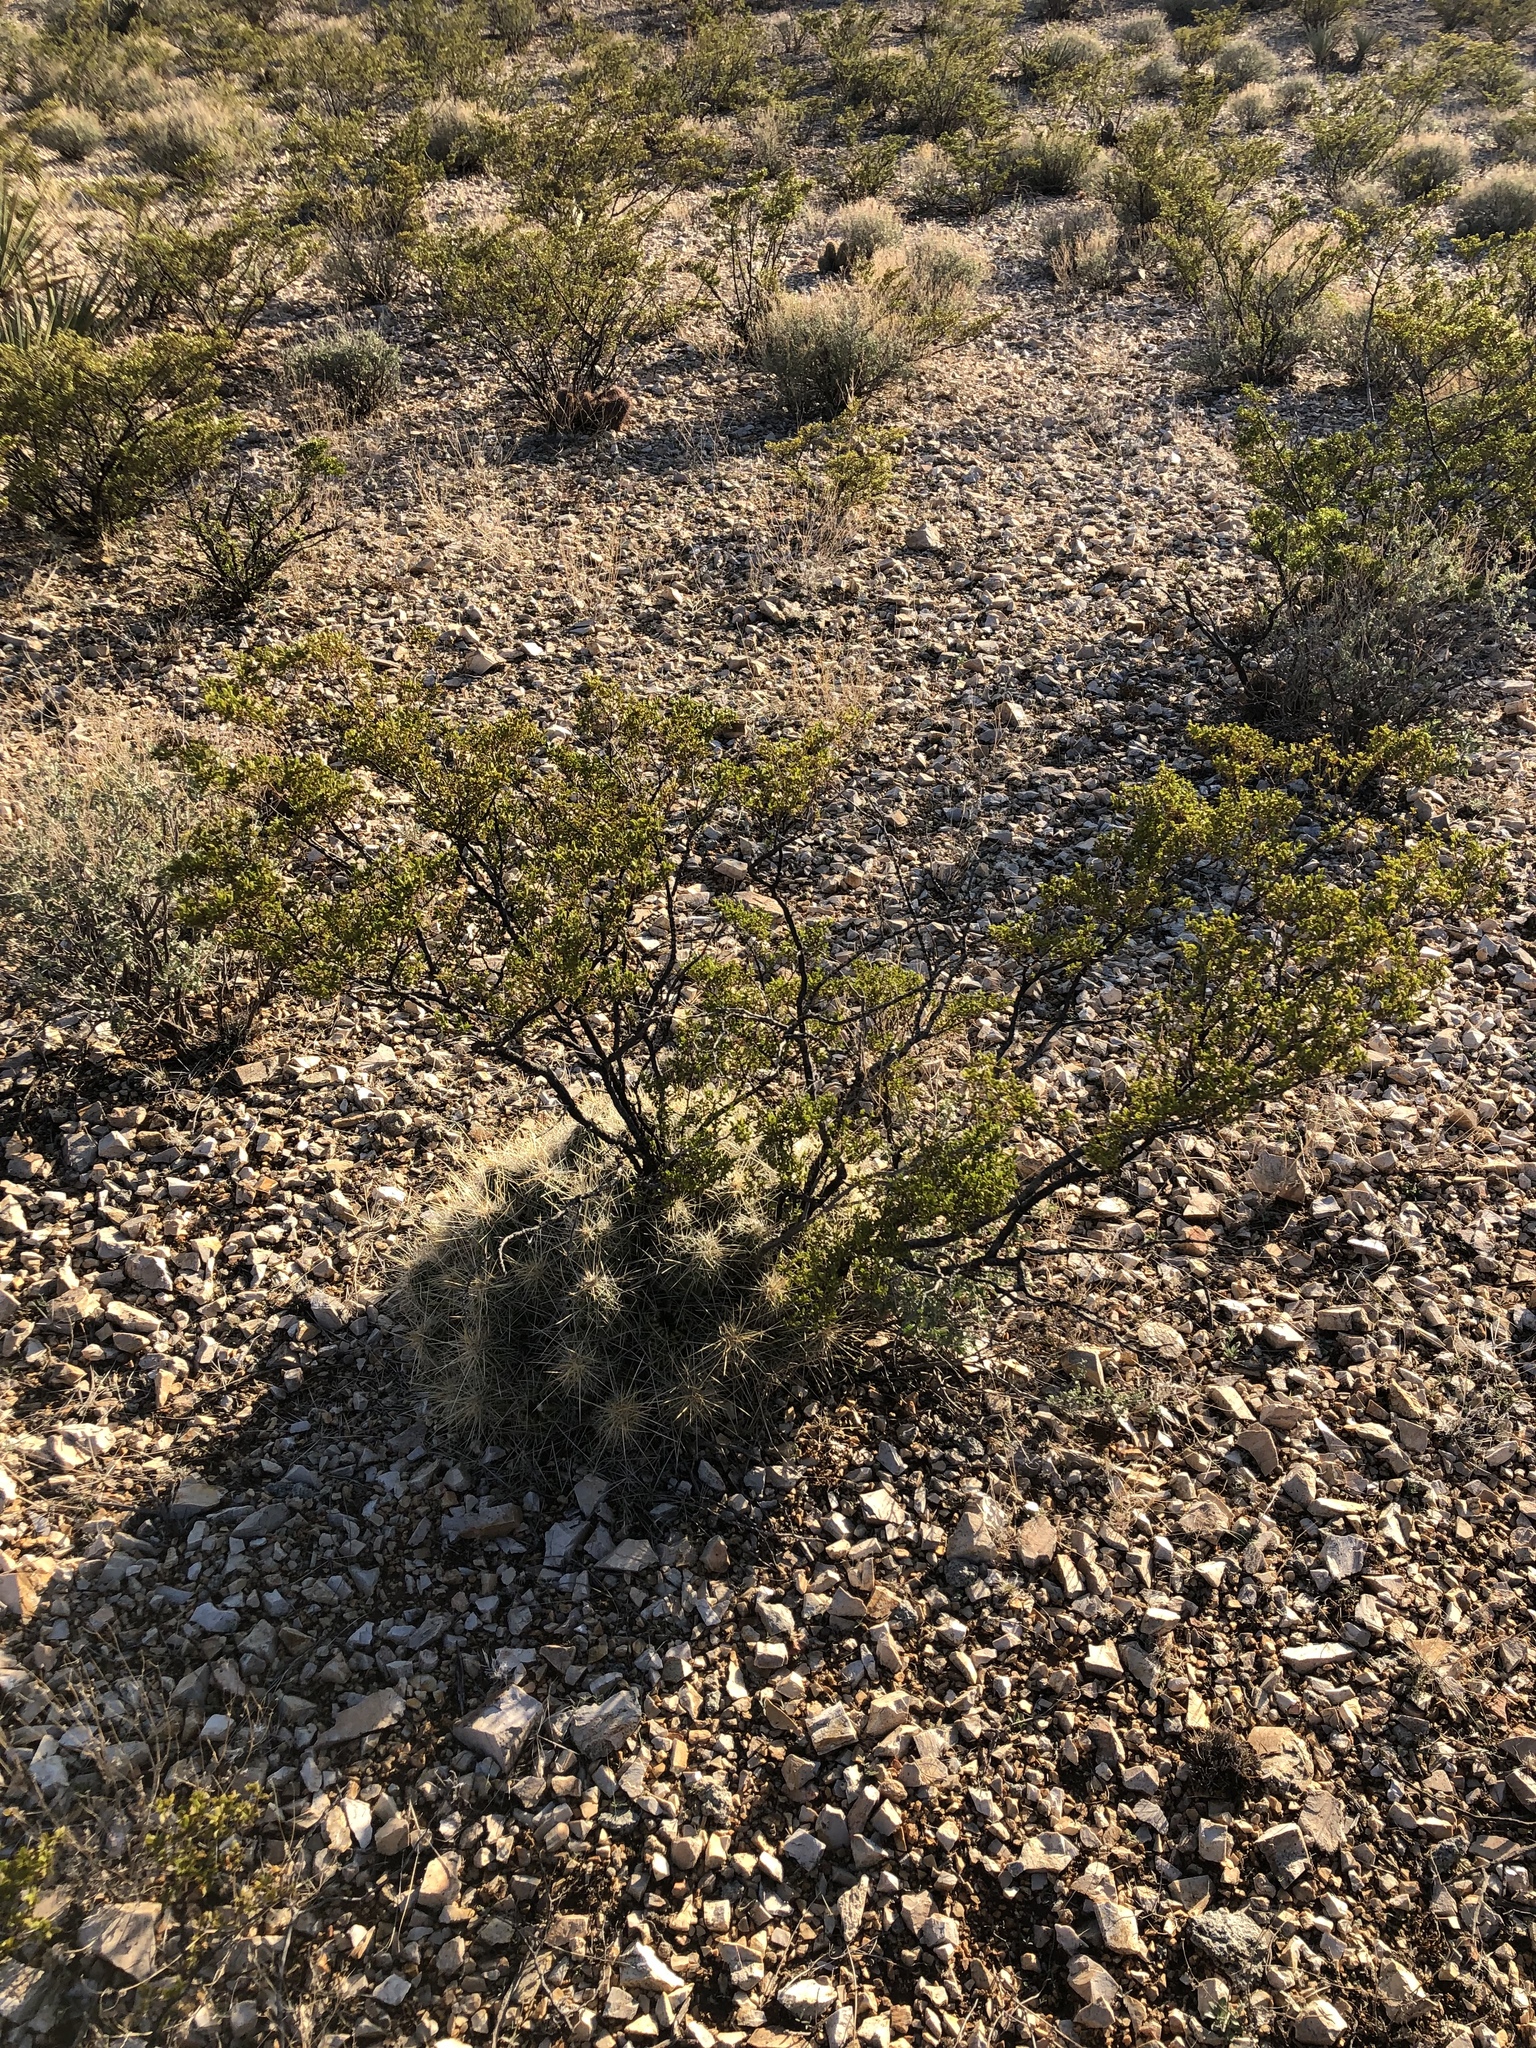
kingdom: Plantae
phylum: Tracheophyta
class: Magnoliopsida
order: Caryophyllales
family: Cactaceae
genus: Echinocereus
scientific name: Echinocereus stramineus
